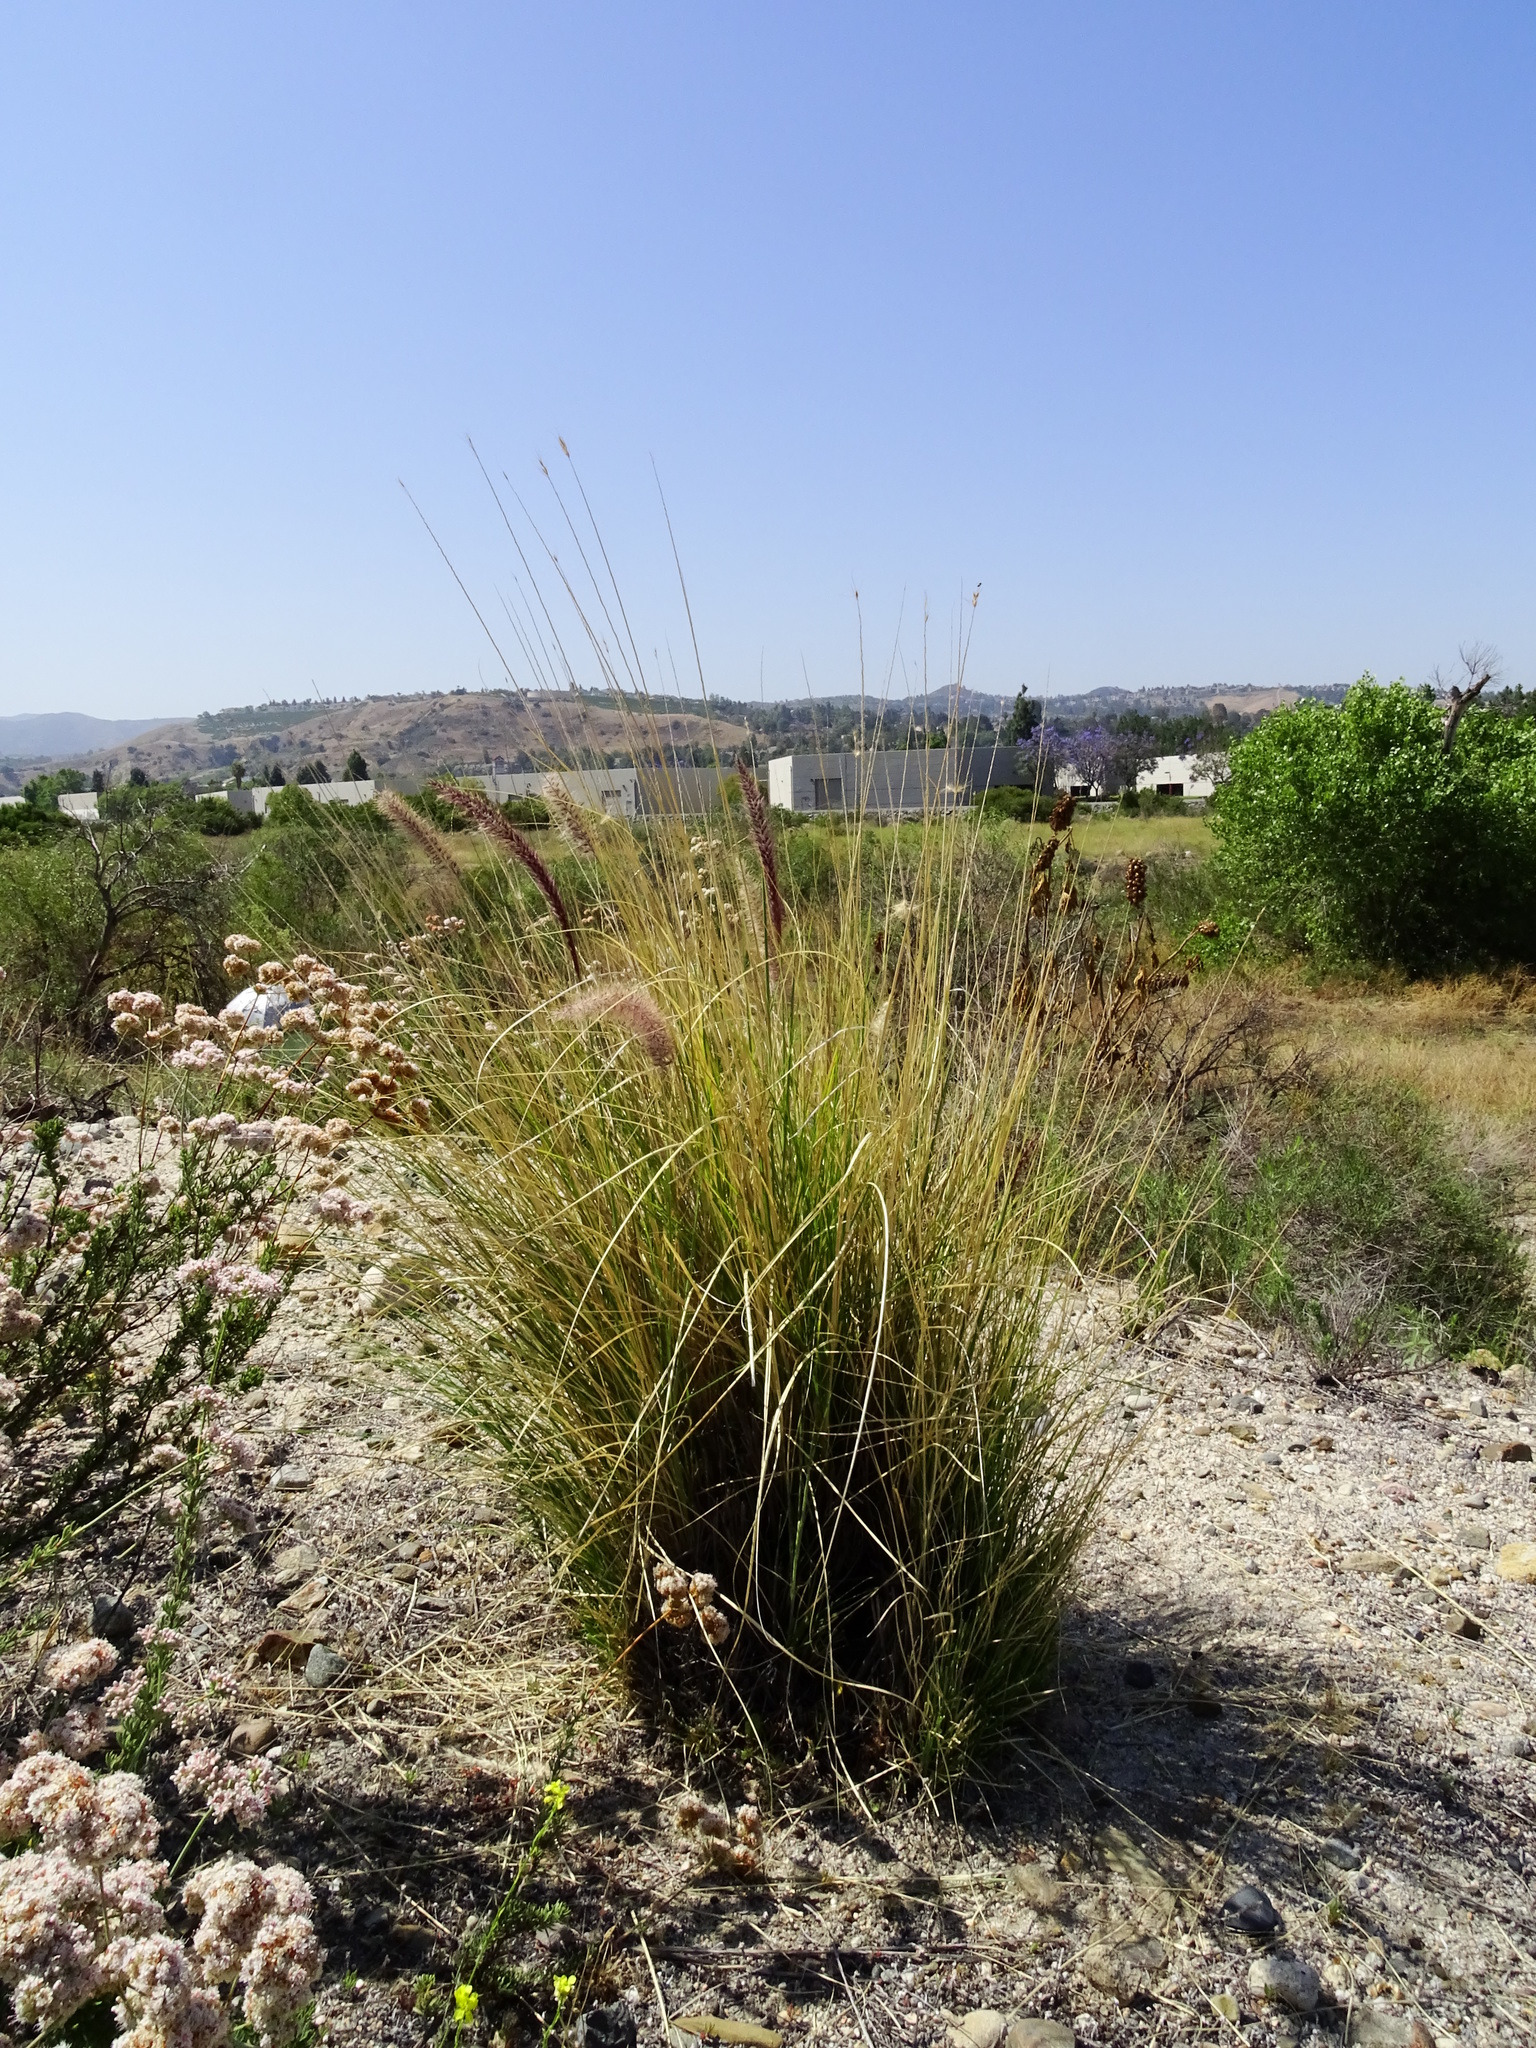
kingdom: Plantae
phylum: Tracheophyta
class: Liliopsida
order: Poales
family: Poaceae
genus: Cenchrus
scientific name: Cenchrus setaceus
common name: Crimson fountaingrass
